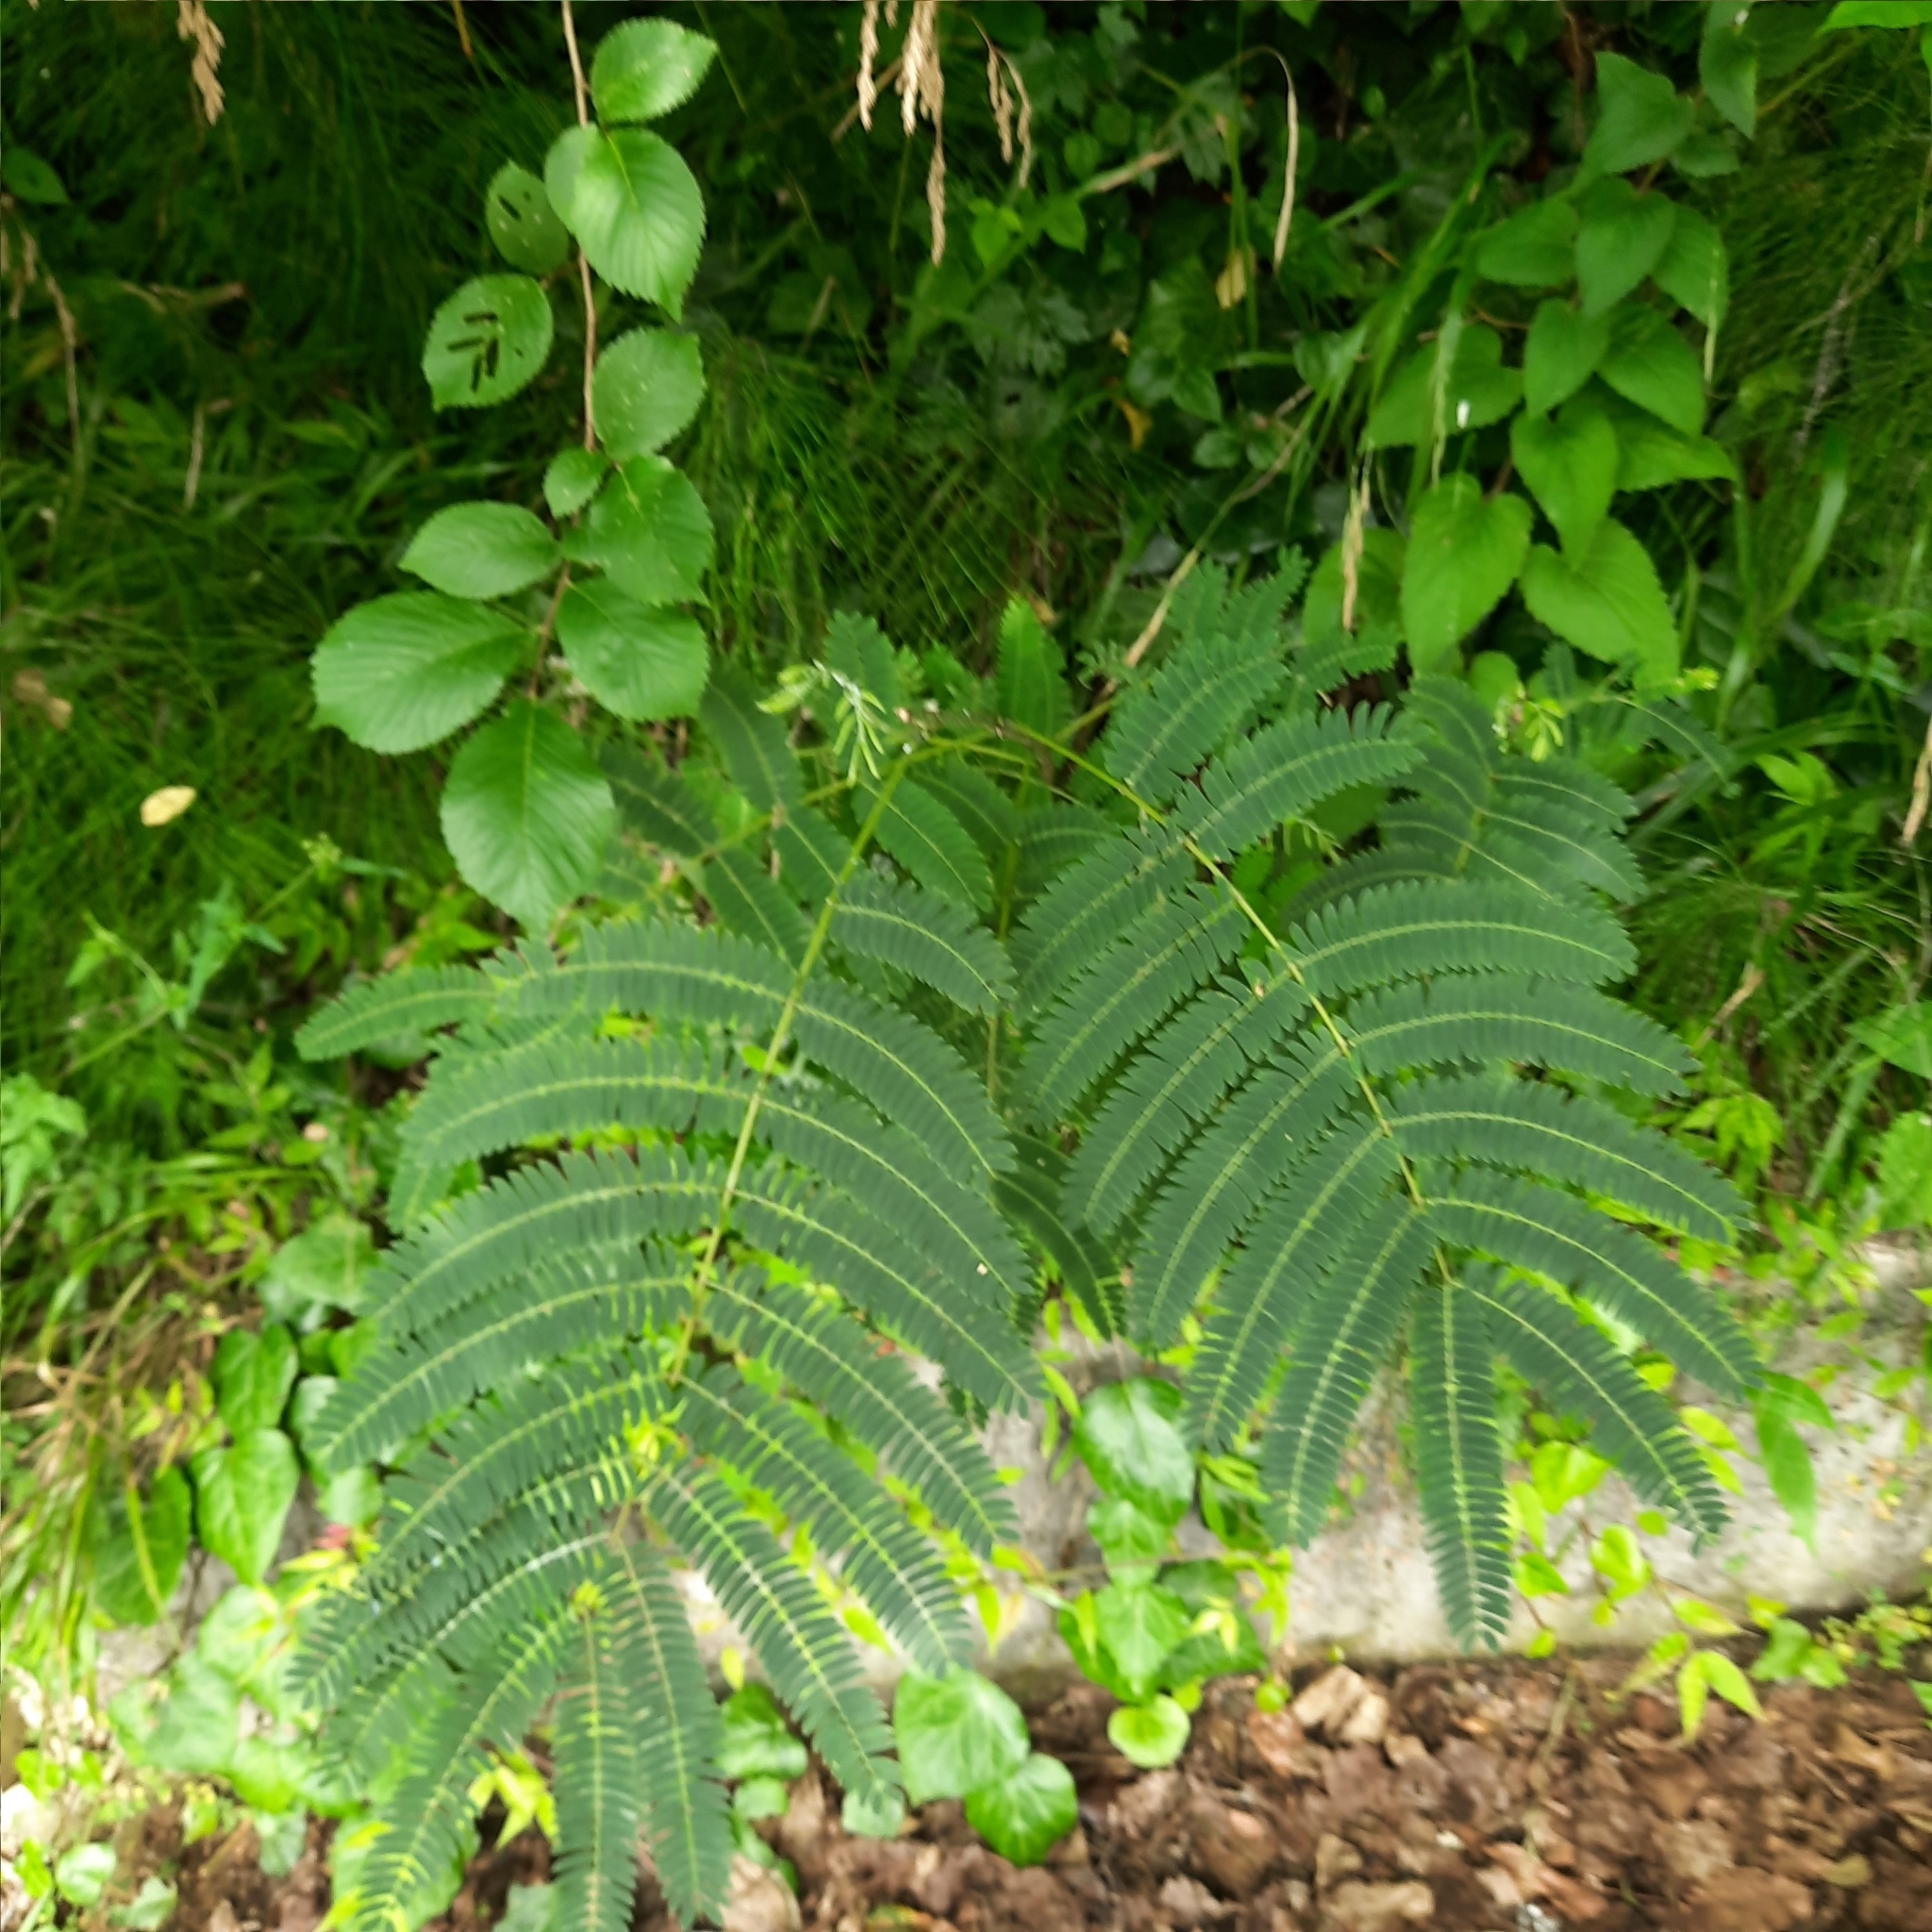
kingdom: Plantae
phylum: Tracheophyta
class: Magnoliopsida
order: Fabales
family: Fabaceae
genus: Albizia
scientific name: Albizia julibrissin
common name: Silktree
